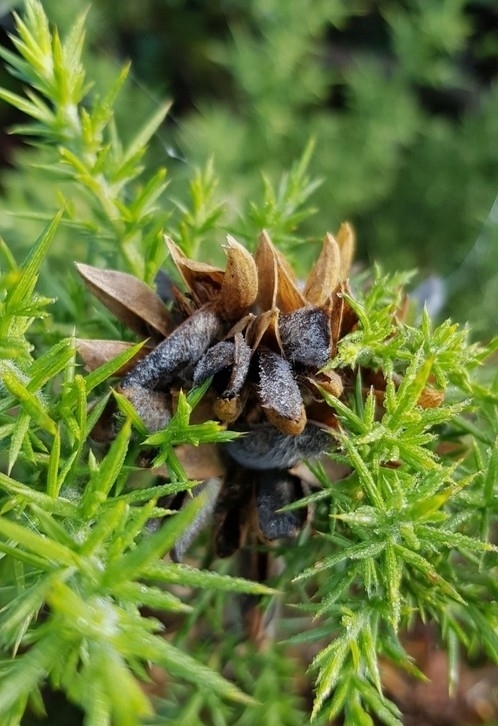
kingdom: Plantae
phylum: Tracheophyta
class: Magnoliopsida
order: Fabales
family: Fabaceae
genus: Ulex
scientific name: Ulex europaeus
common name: Common gorse
